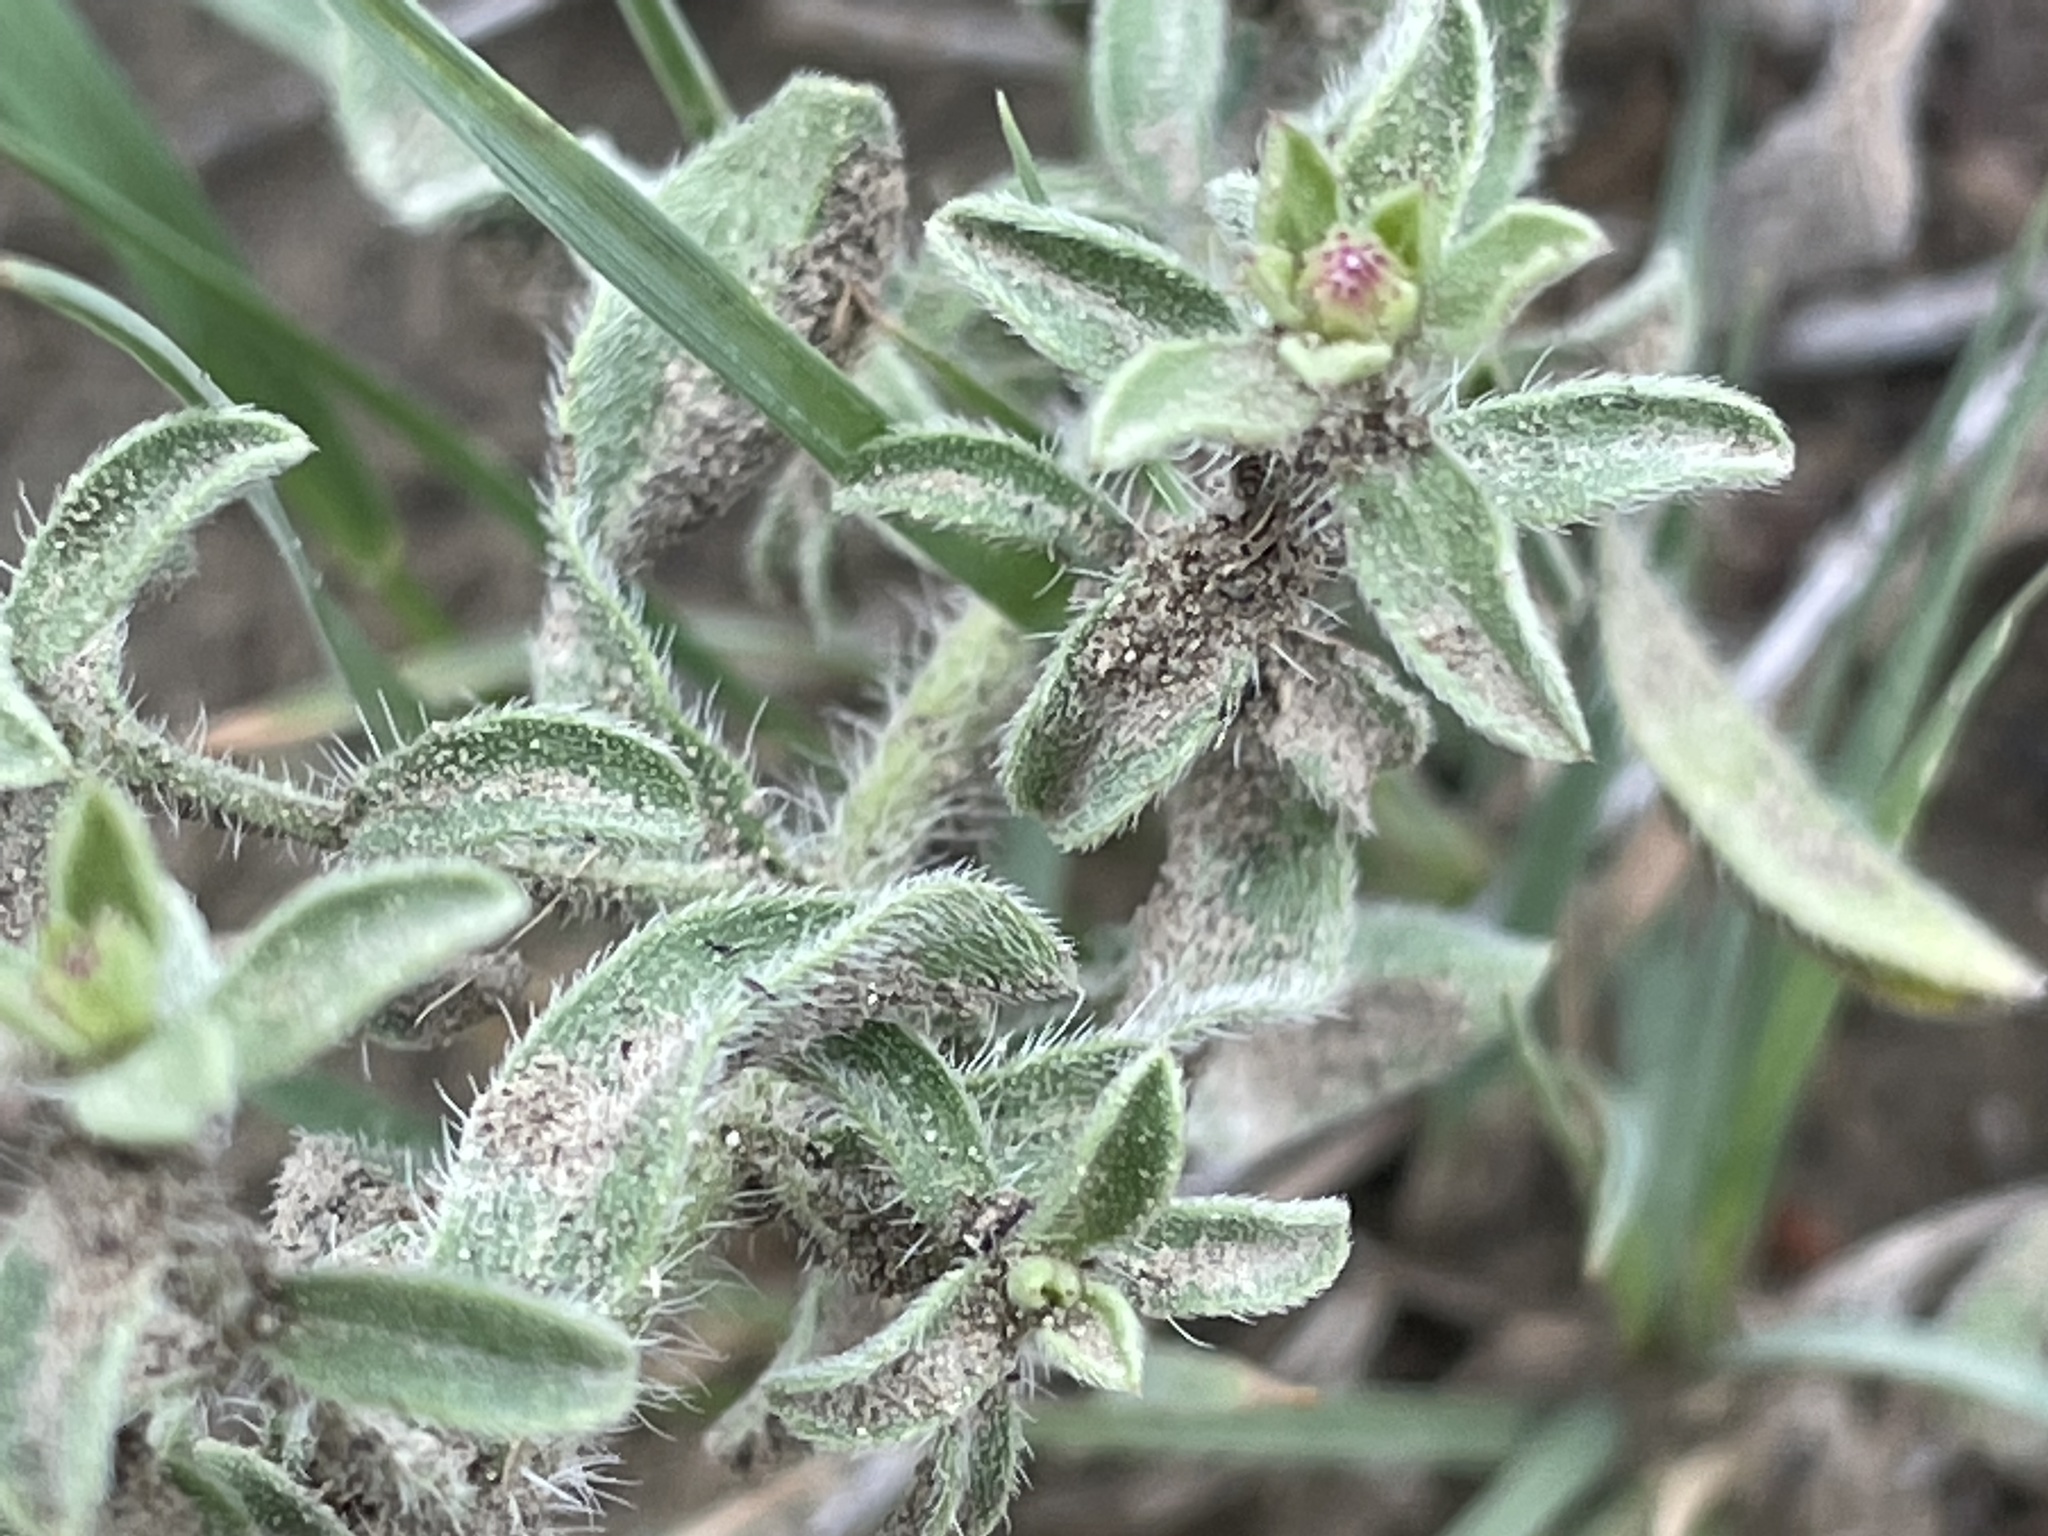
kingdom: Plantae
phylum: Tracheophyta
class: Magnoliopsida
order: Asterales
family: Asteraceae
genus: Heterotheca
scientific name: Heterotheca hirsutissima
